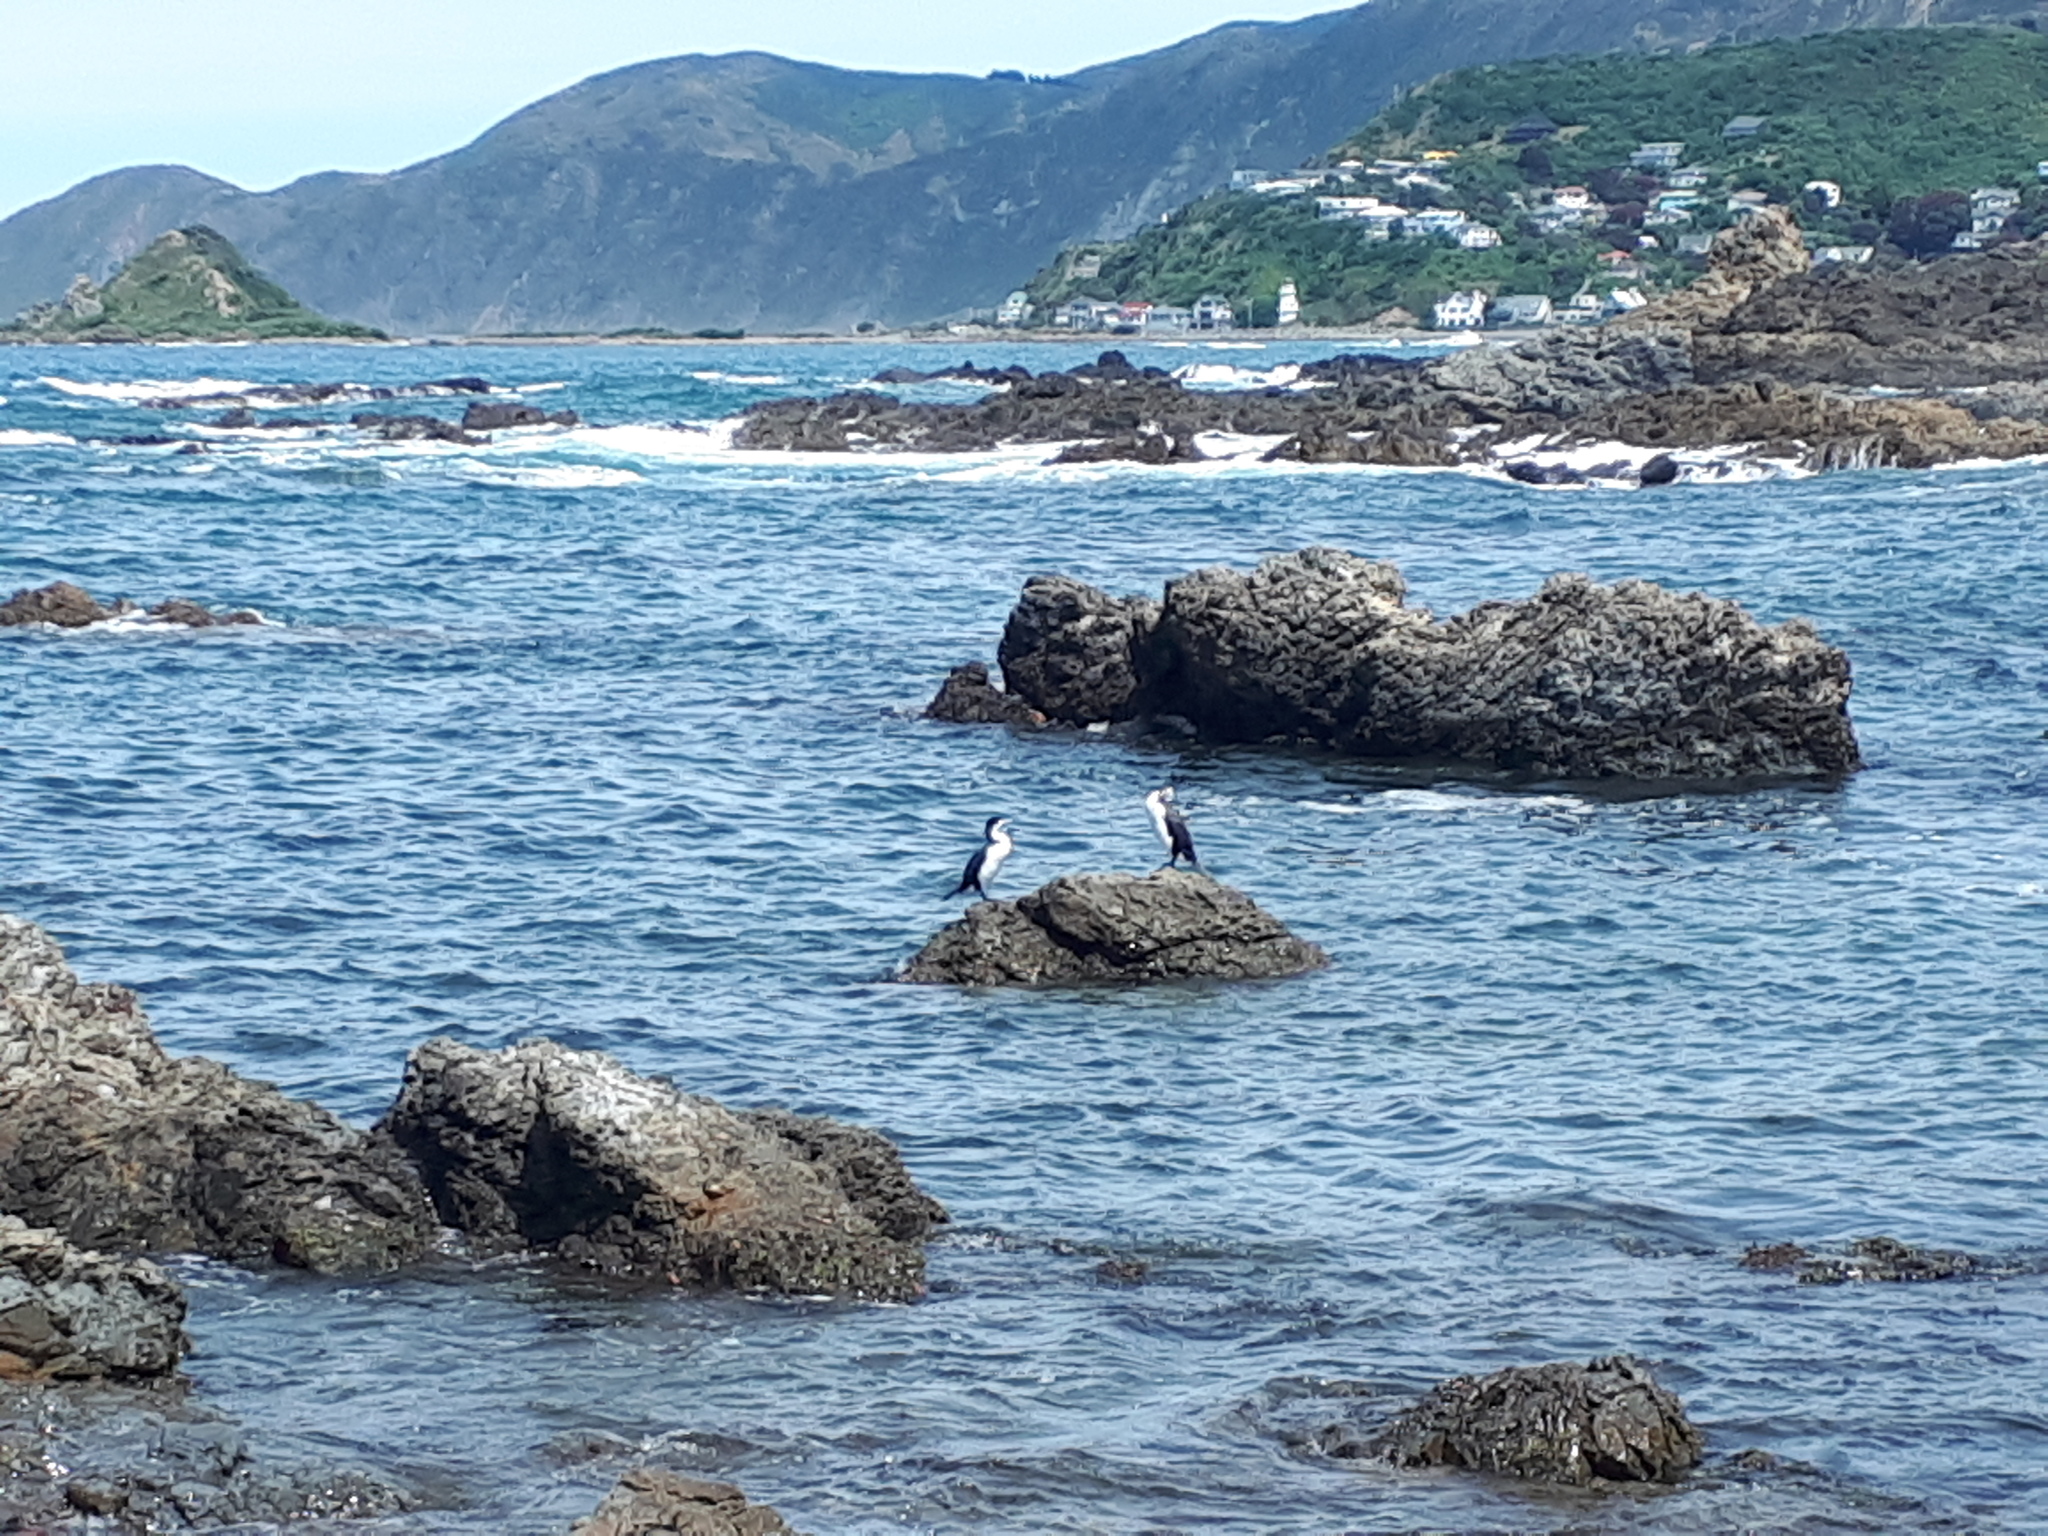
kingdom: Animalia
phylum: Chordata
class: Aves
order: Suliformes
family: Phalacrocoracidae
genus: Phalacrocorax
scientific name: Phalacrocorax varius
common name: Pied cormorant
